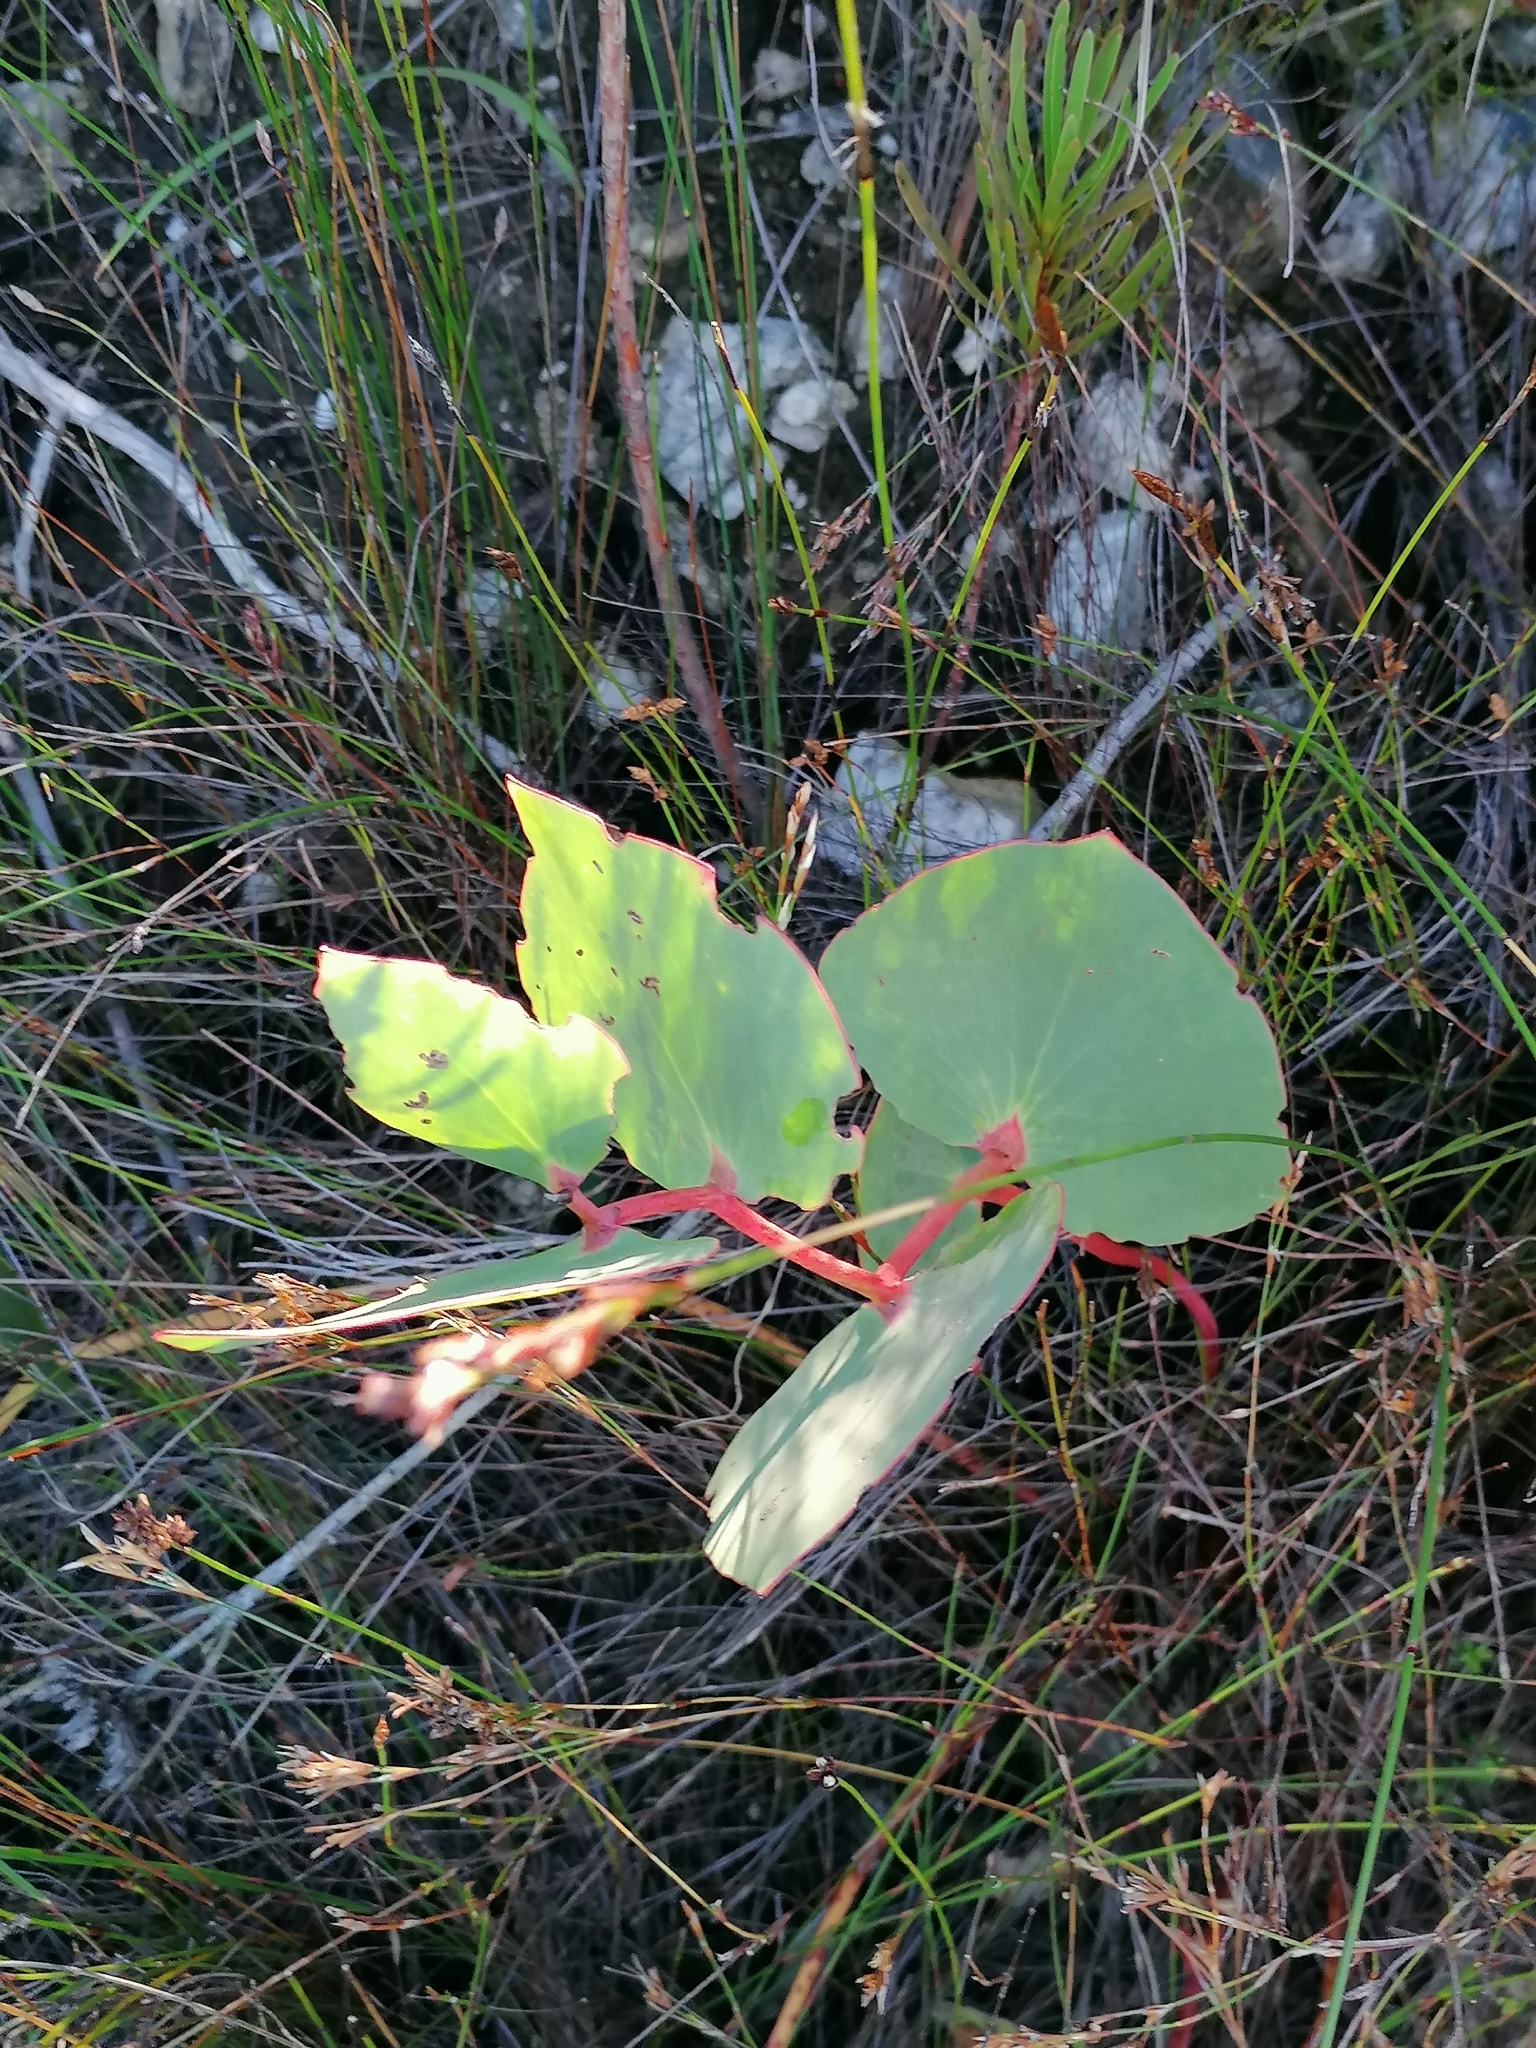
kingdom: Plantae
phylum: Tracheophyta
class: Magnoliopsida
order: Proteales
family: Proteaceae
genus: Protea
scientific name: Protea cordata
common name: Heart-leaf sugarbush
